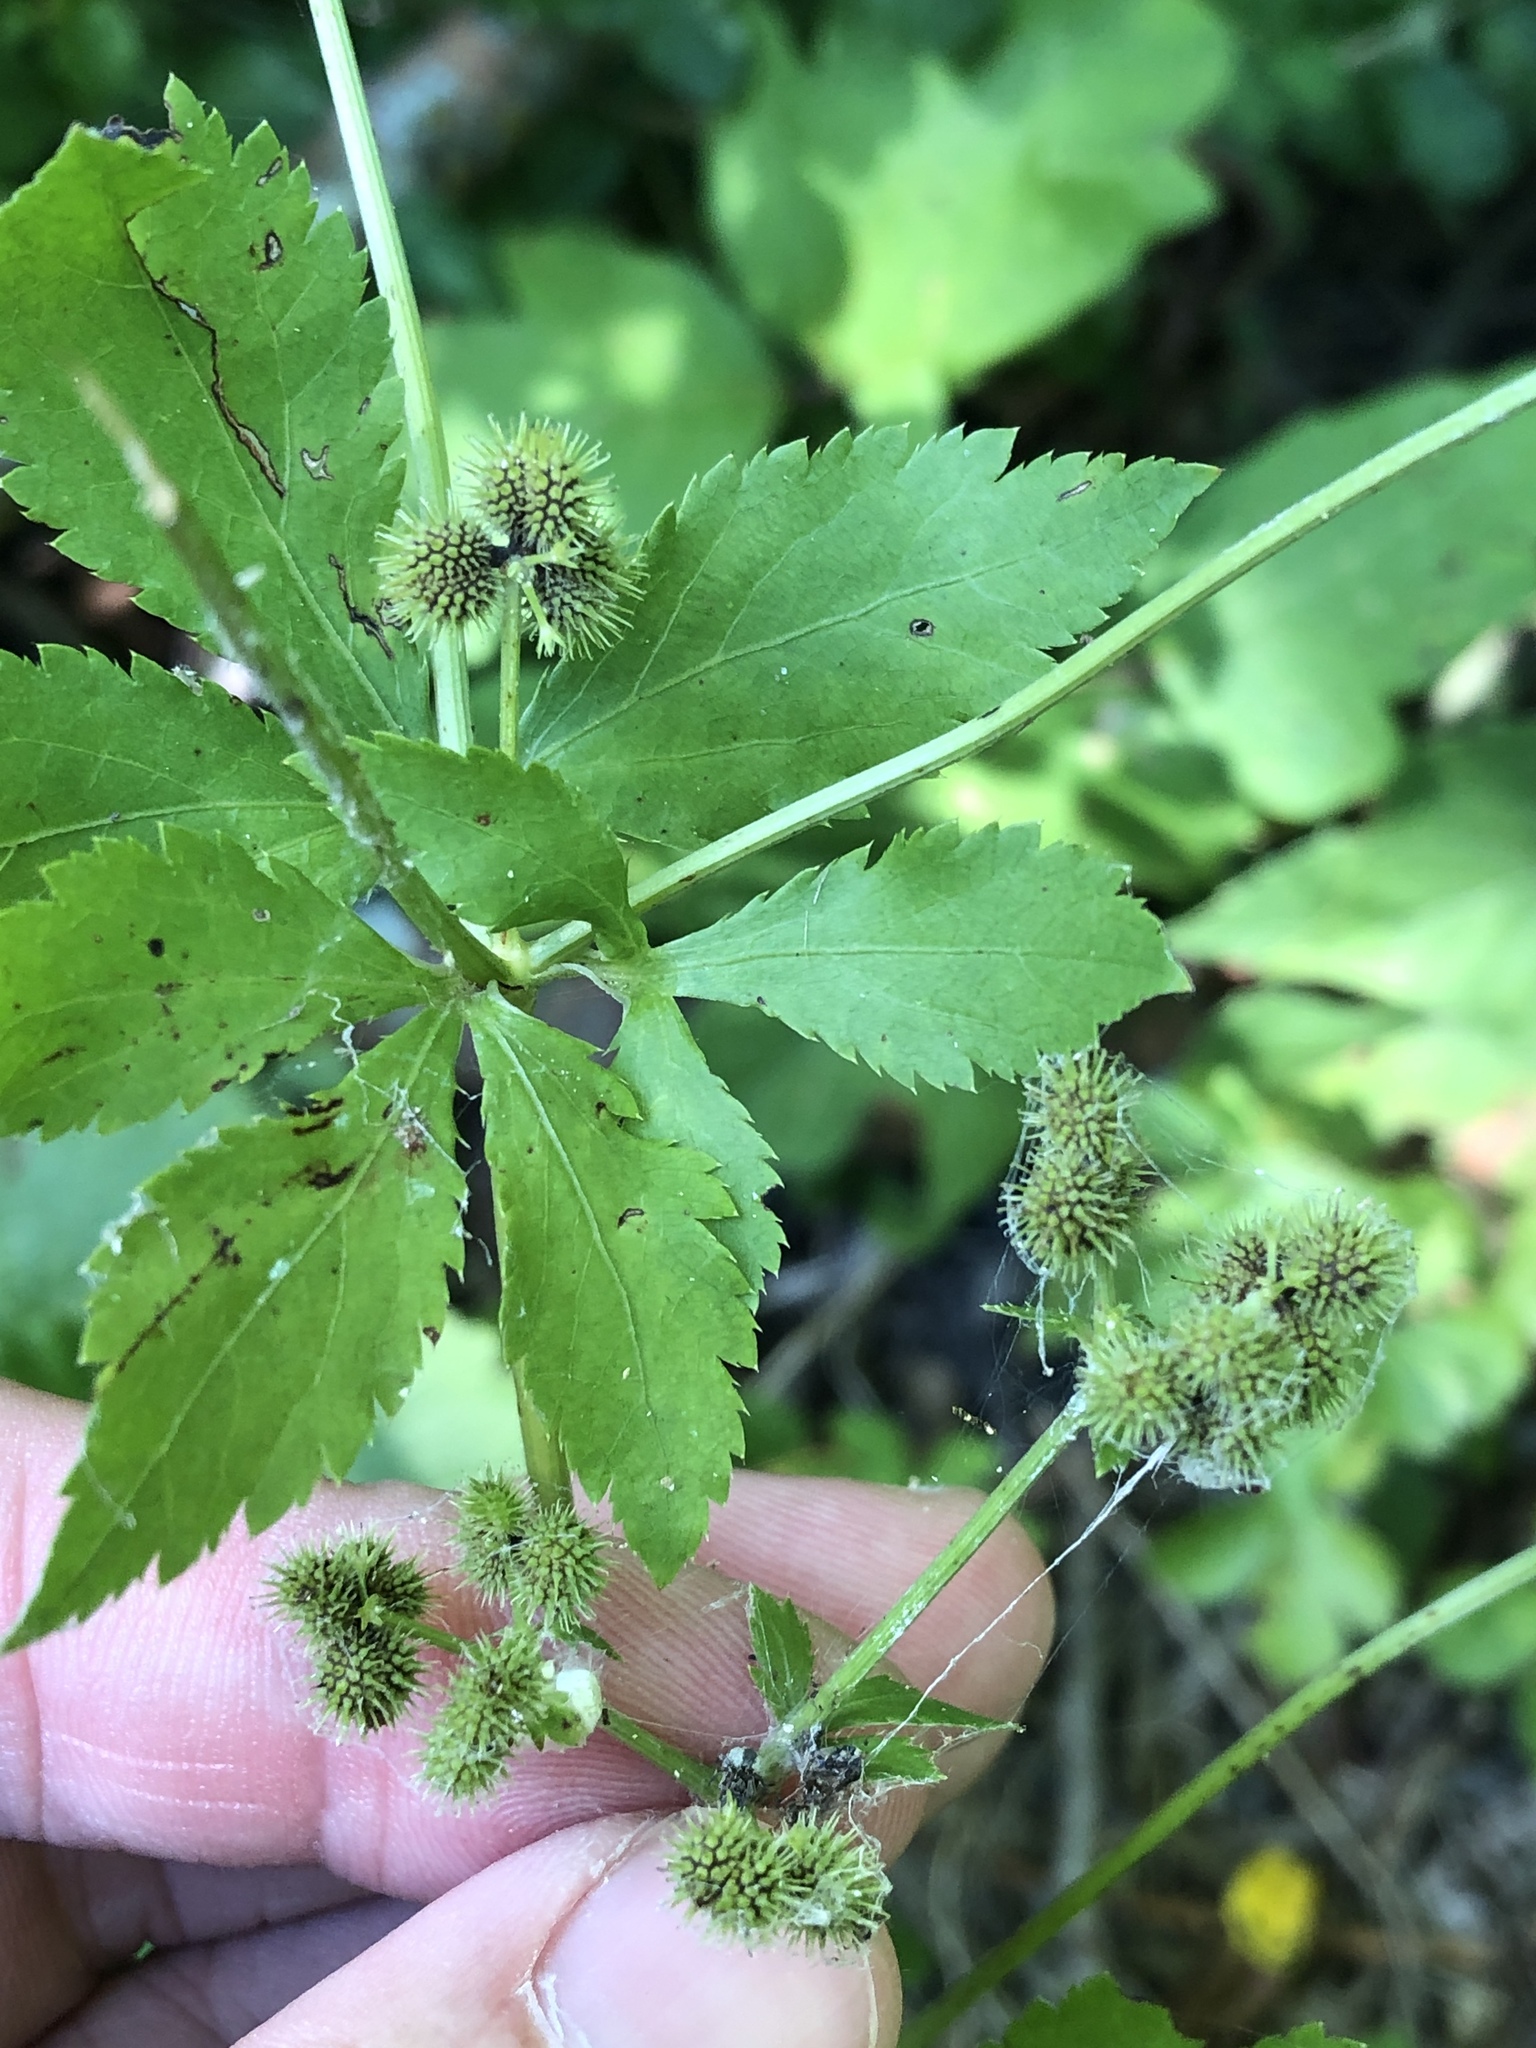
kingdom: Plantae
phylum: Tracheophyta
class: Magnoliopsida
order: Apiales
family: Apiaceae
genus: Sanicula
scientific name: Sanicula canadensis
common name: Canada sanicle
